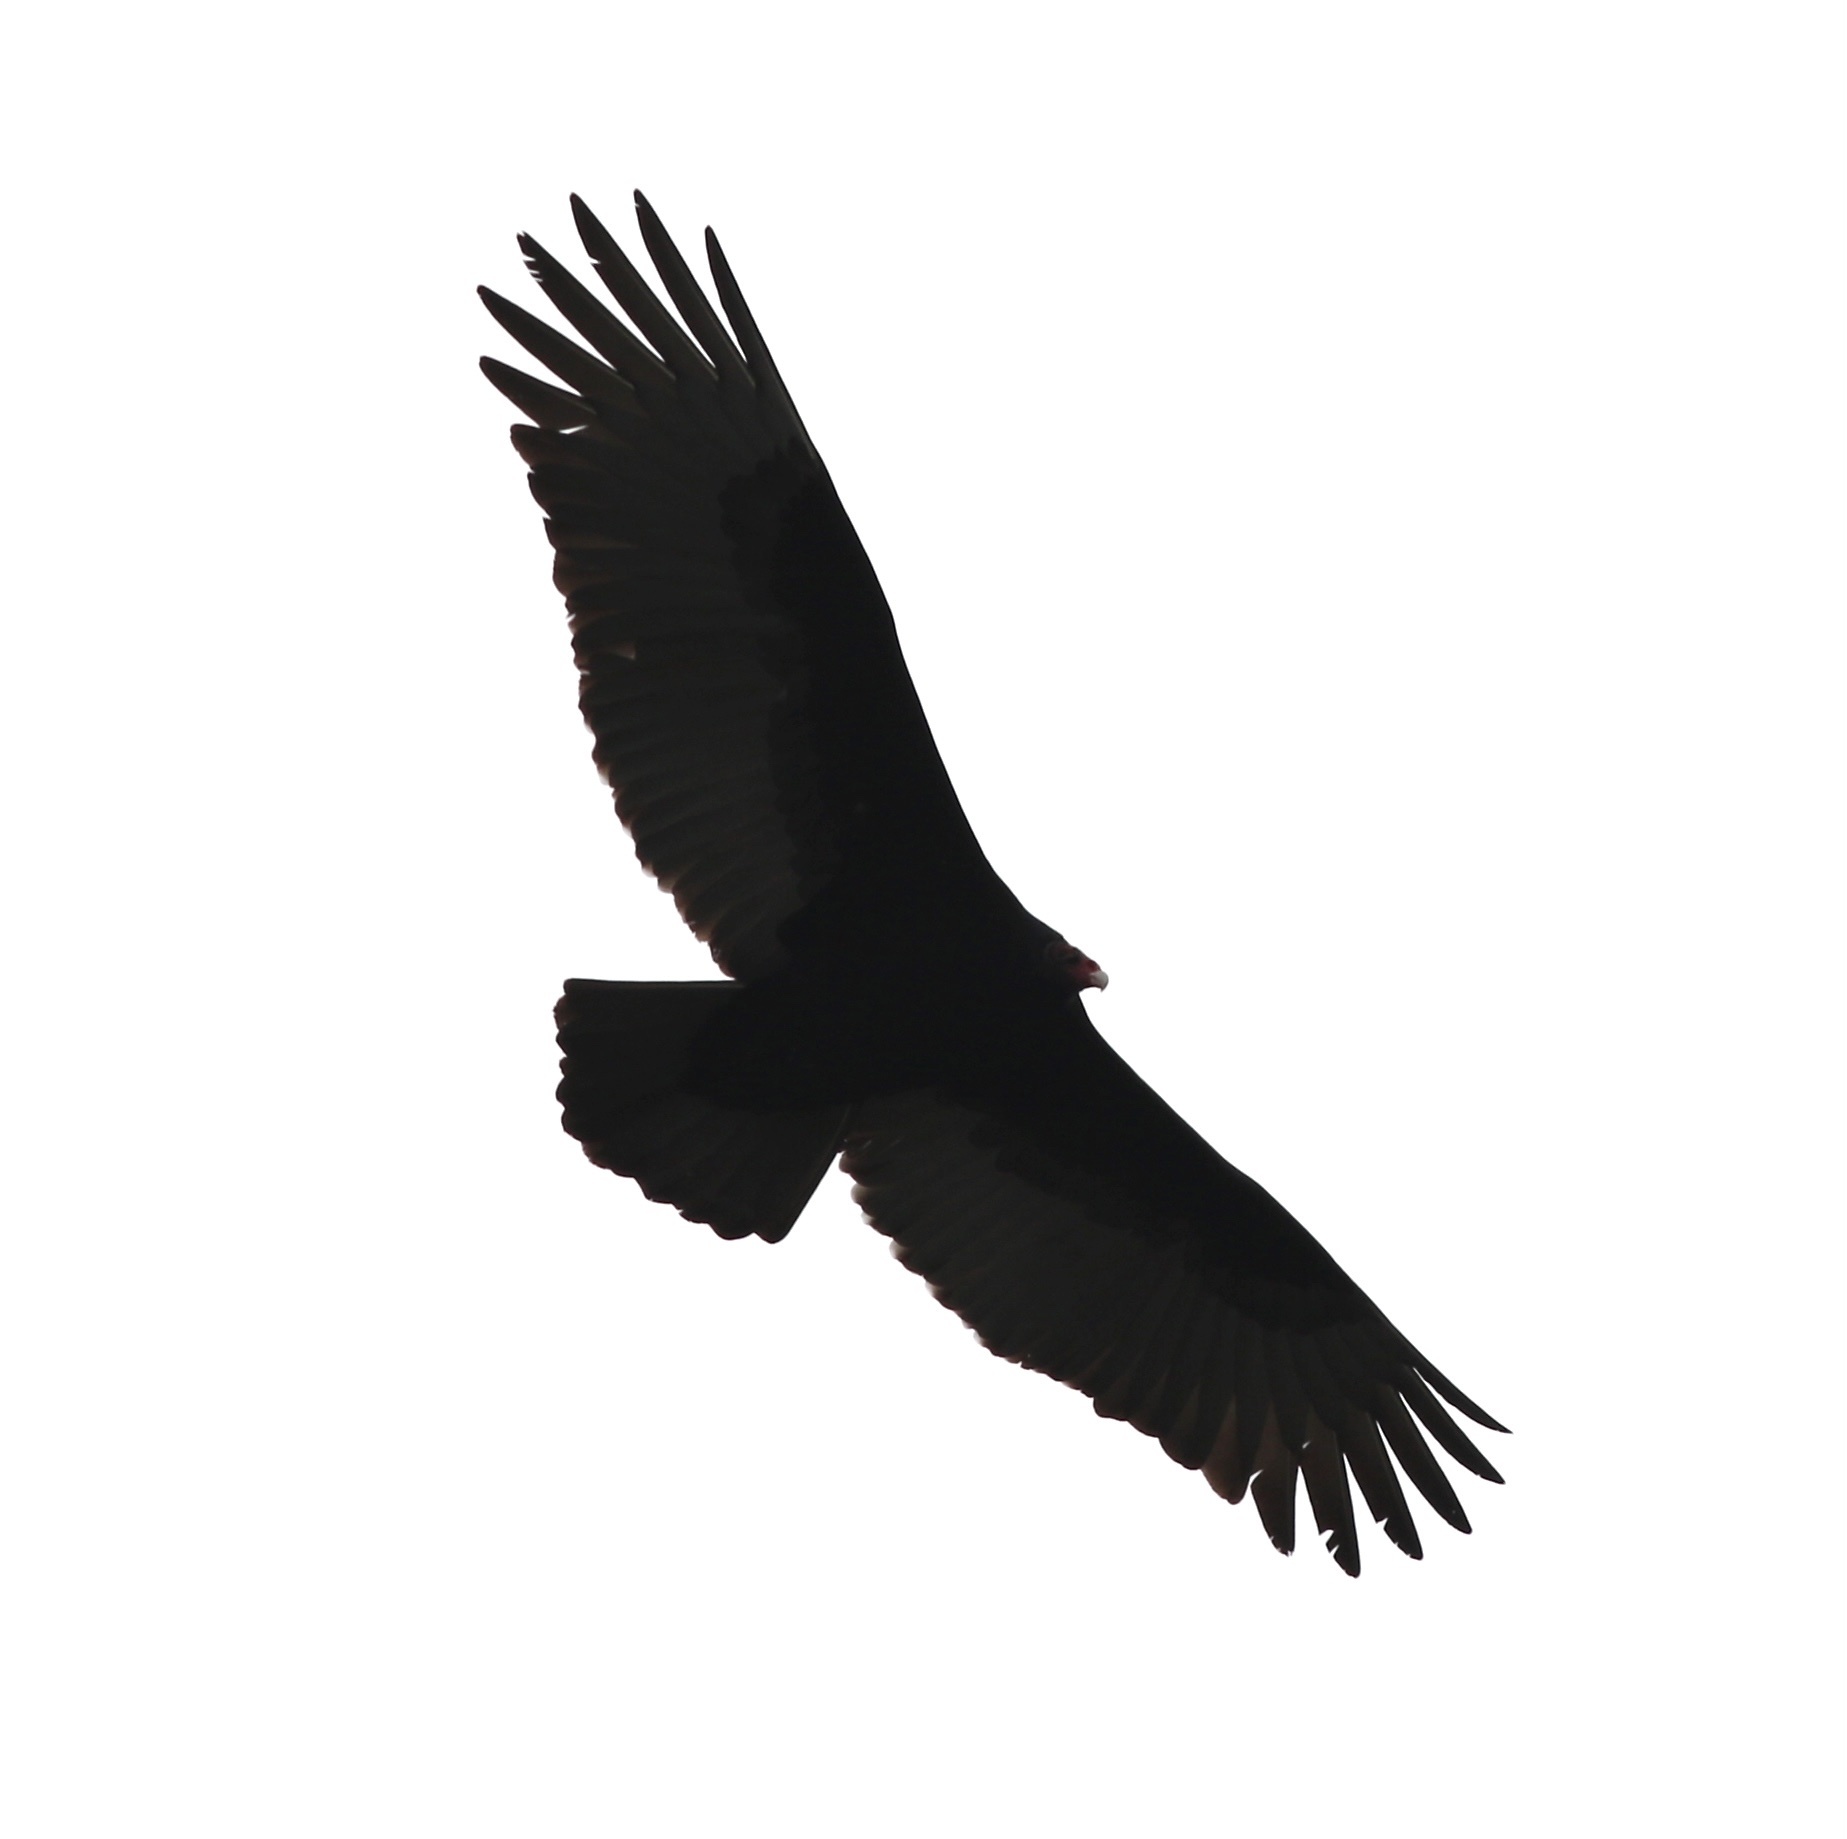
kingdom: Animalia
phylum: Chordata
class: Aves
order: Accipitriformes
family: Cathartidae
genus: Cathartes
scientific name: Cathartes aura
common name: Turkey vulture
